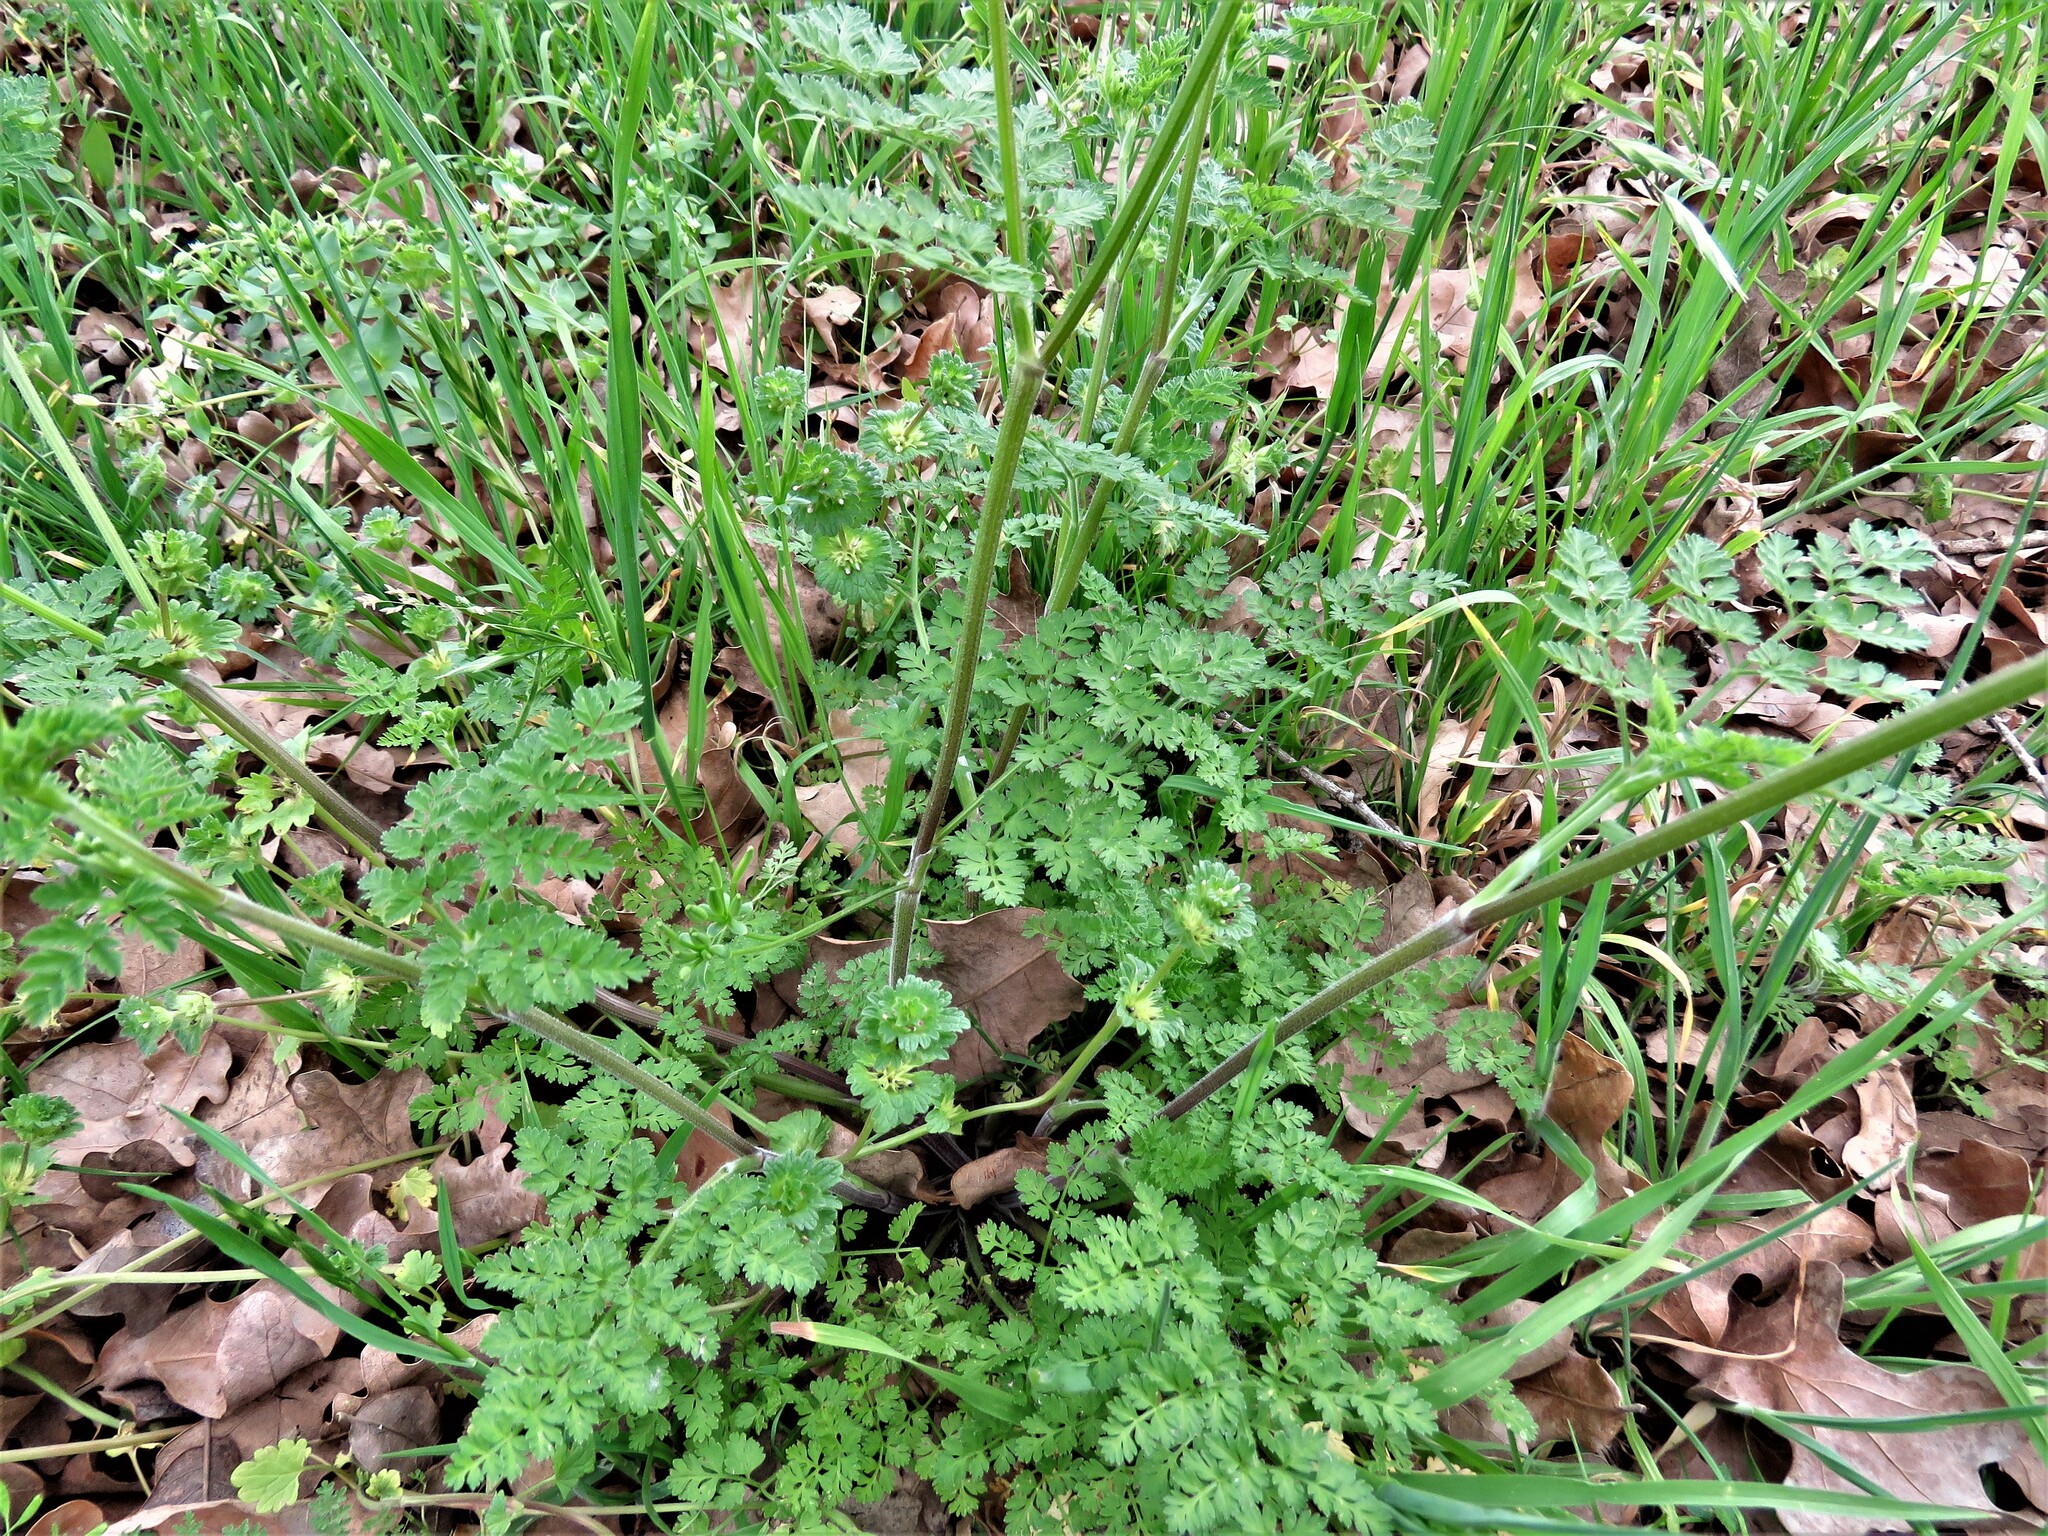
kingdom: Plantae
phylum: Tracheophyta
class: Magnoliopsida
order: Apiales
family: Apiaceae
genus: Chaerophyllum
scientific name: Chaerophyllum tainturieri
